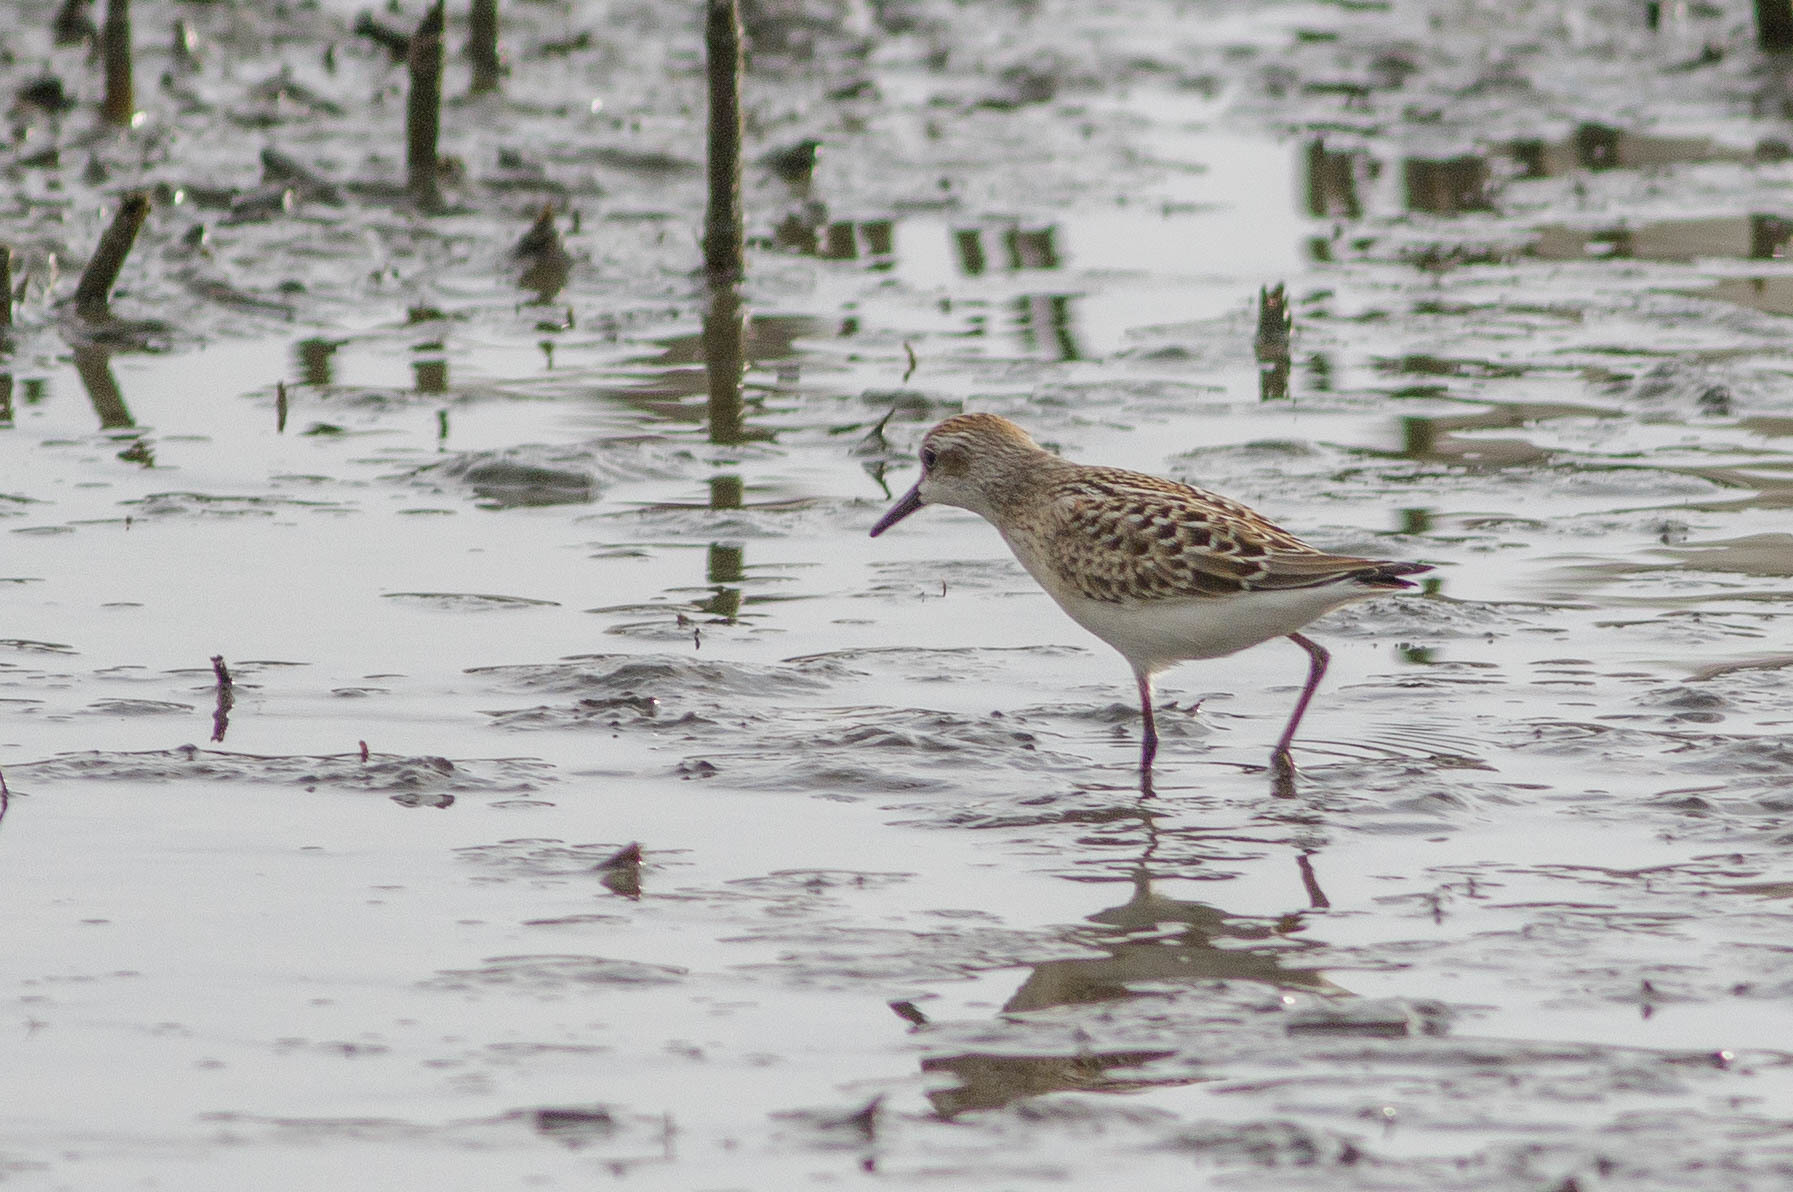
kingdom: Animalia
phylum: Chordata
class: Aves
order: Charadriiformes
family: Scolopacidae
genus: Calidris
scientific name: Calidris minutilla
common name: Least sandpiper
